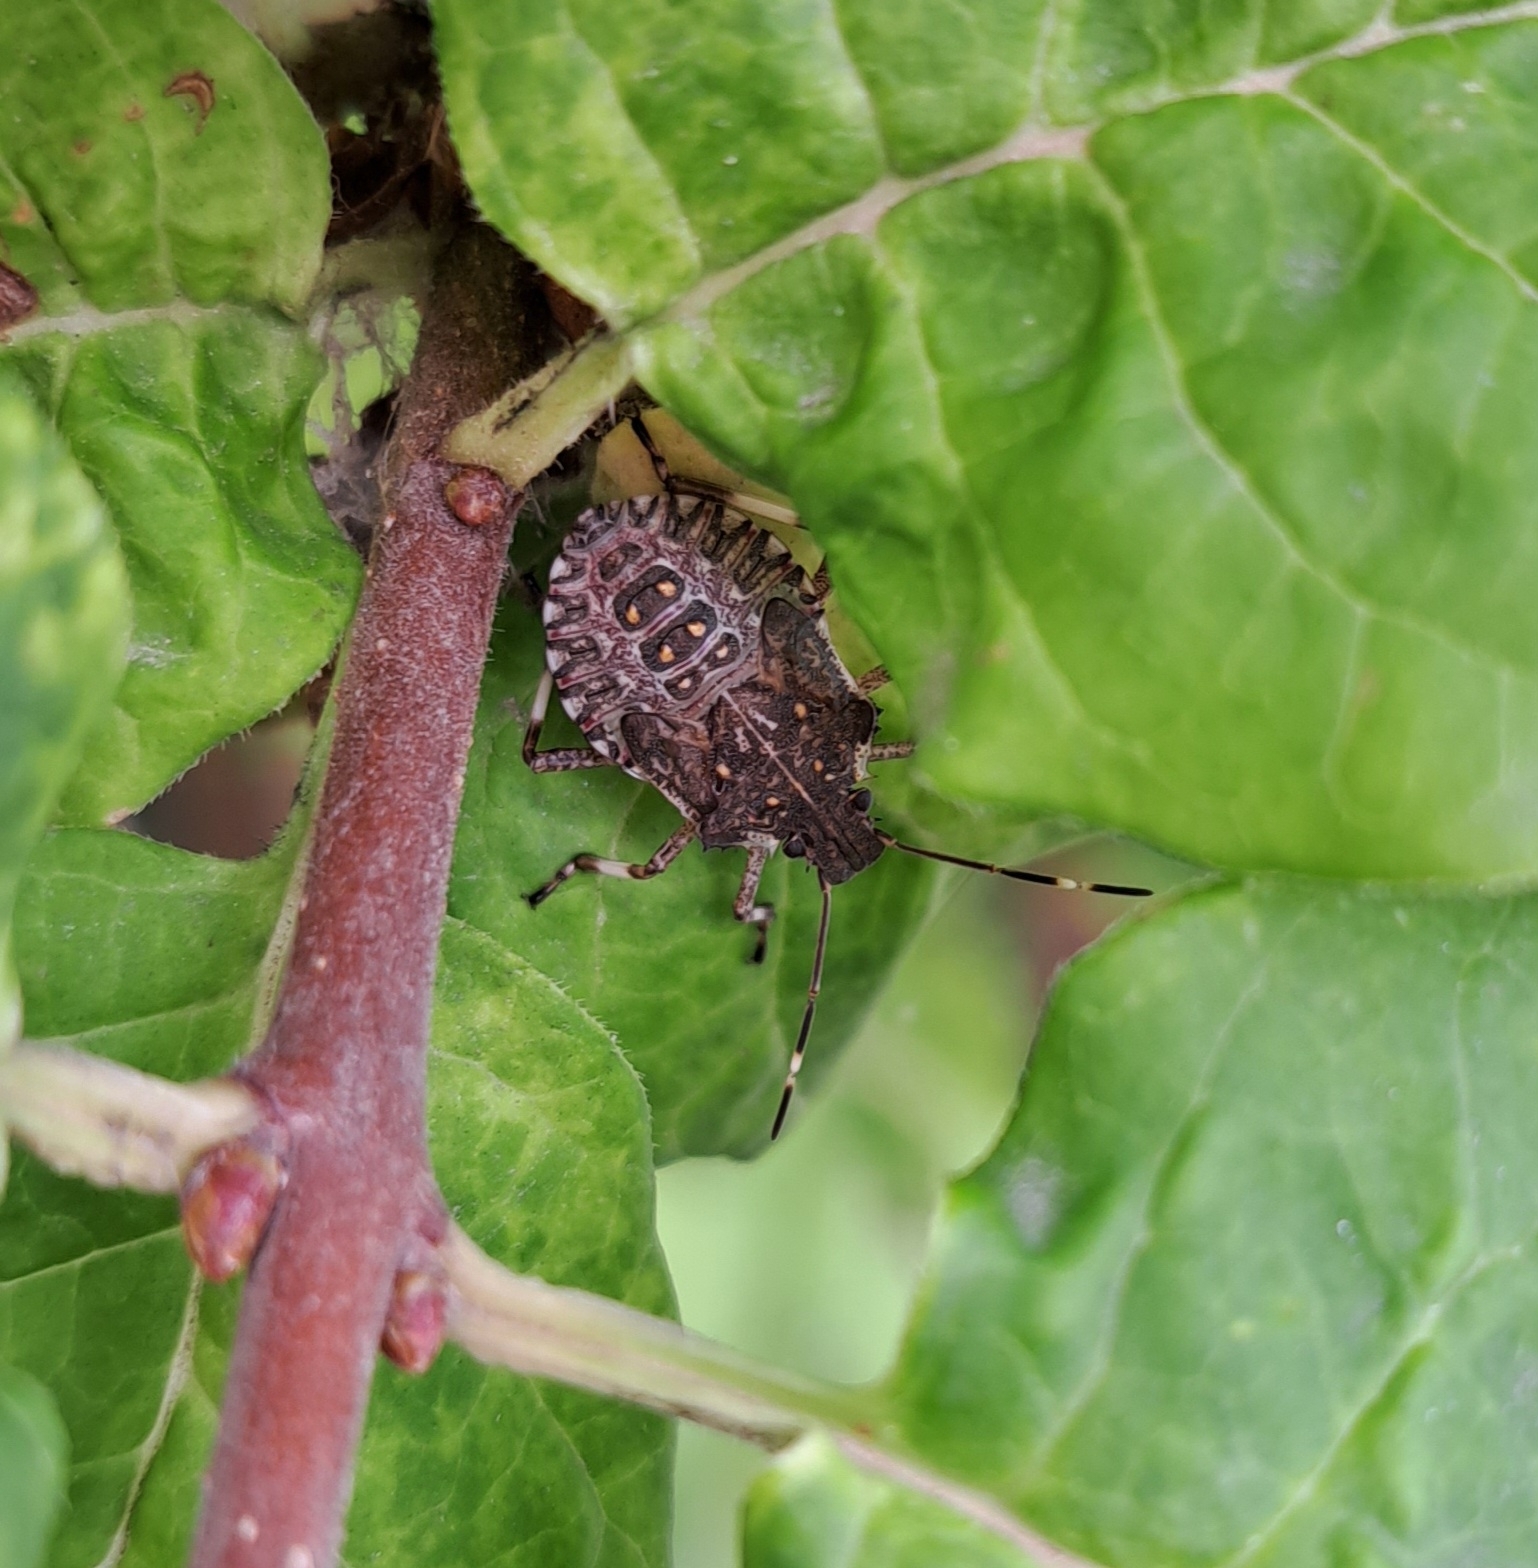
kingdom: Animalia
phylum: Arthropoda
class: Insecta
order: Hemiptera
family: Pentatomidae
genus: Halyomorpha
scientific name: Halyomorpha halys
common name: Brown marmorated stink bug
